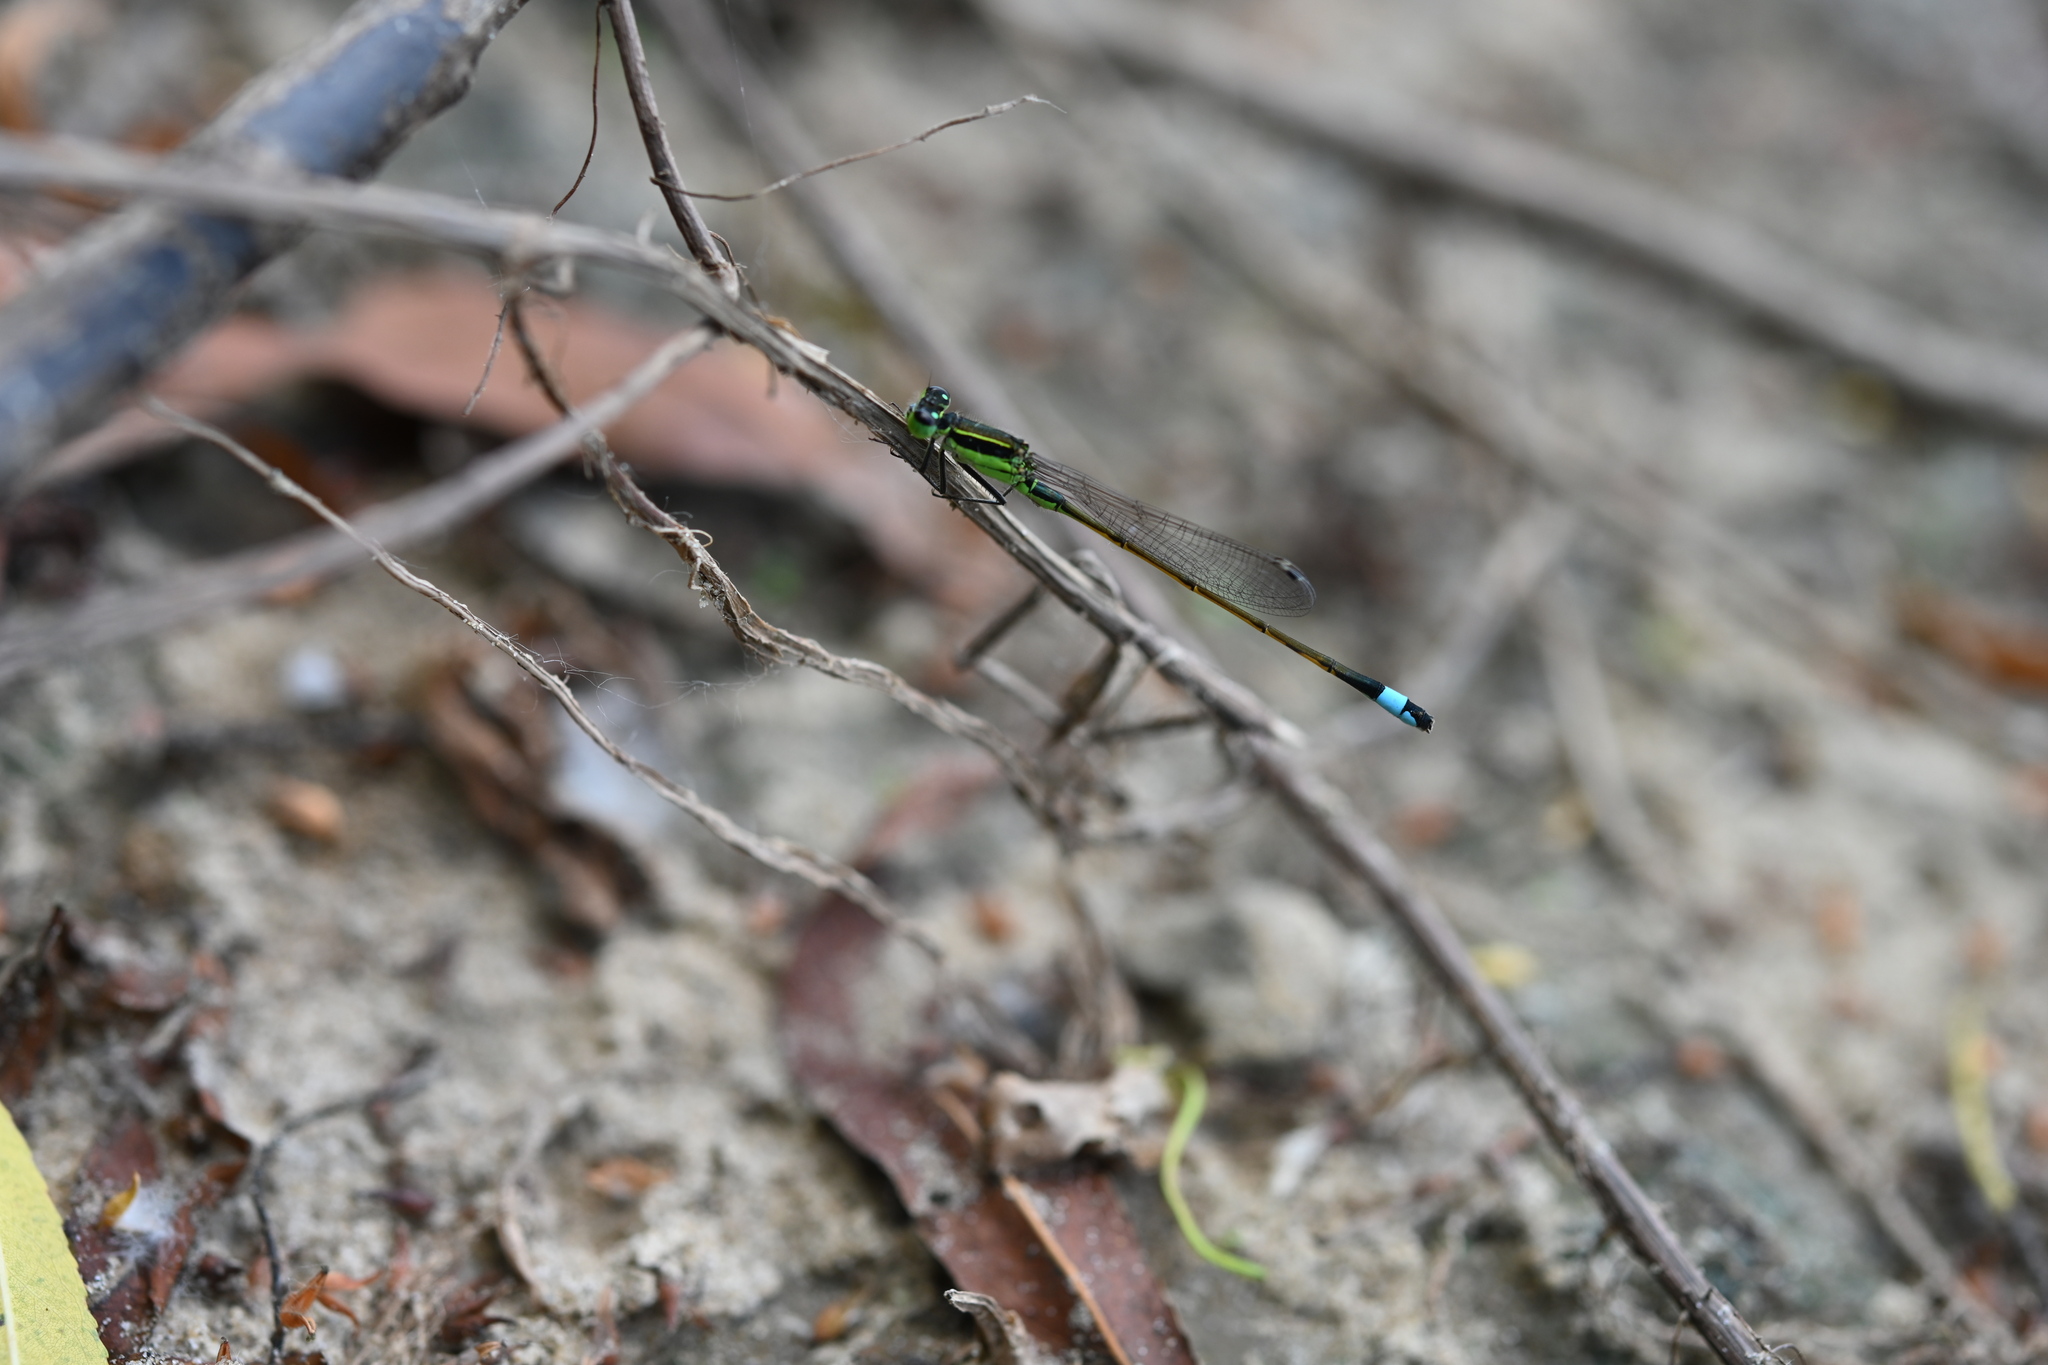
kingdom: Animalia
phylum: Arthropoda
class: Insecta
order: Odonata
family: Coenagrionidae
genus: Ischnura
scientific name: Ischnura ramburii
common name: Rambur's forktail
